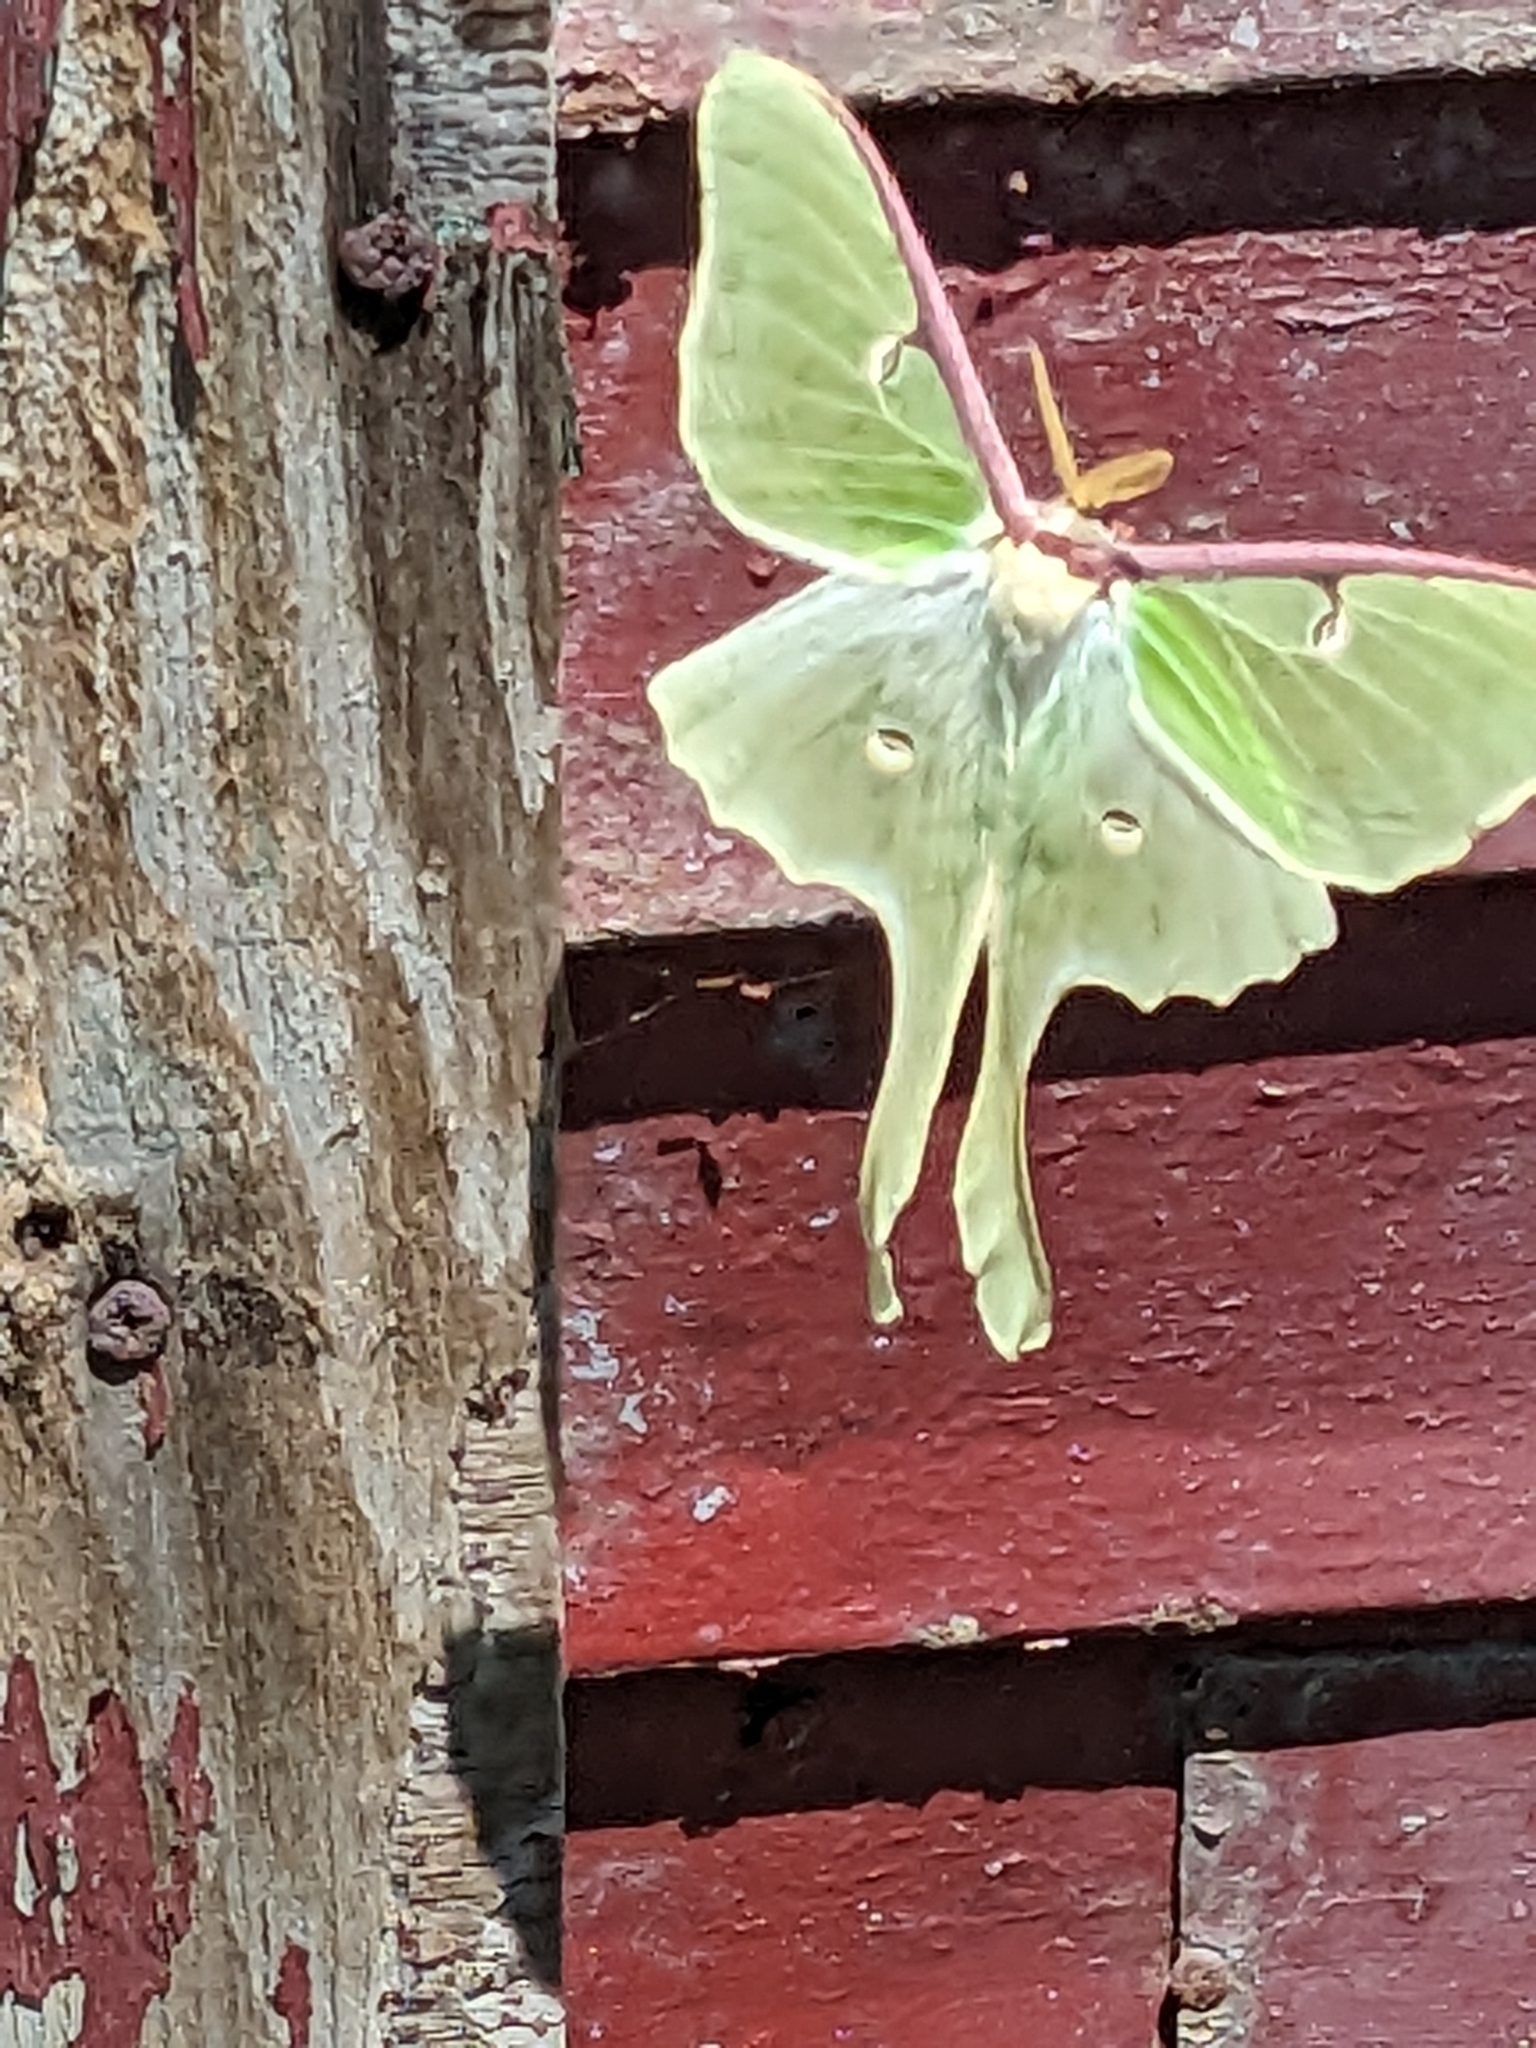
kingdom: Animalia
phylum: Arthropoda
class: Insecta
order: Lepidoptera
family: Saturniidae
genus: Actias
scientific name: Actias luna
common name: Luna moth
